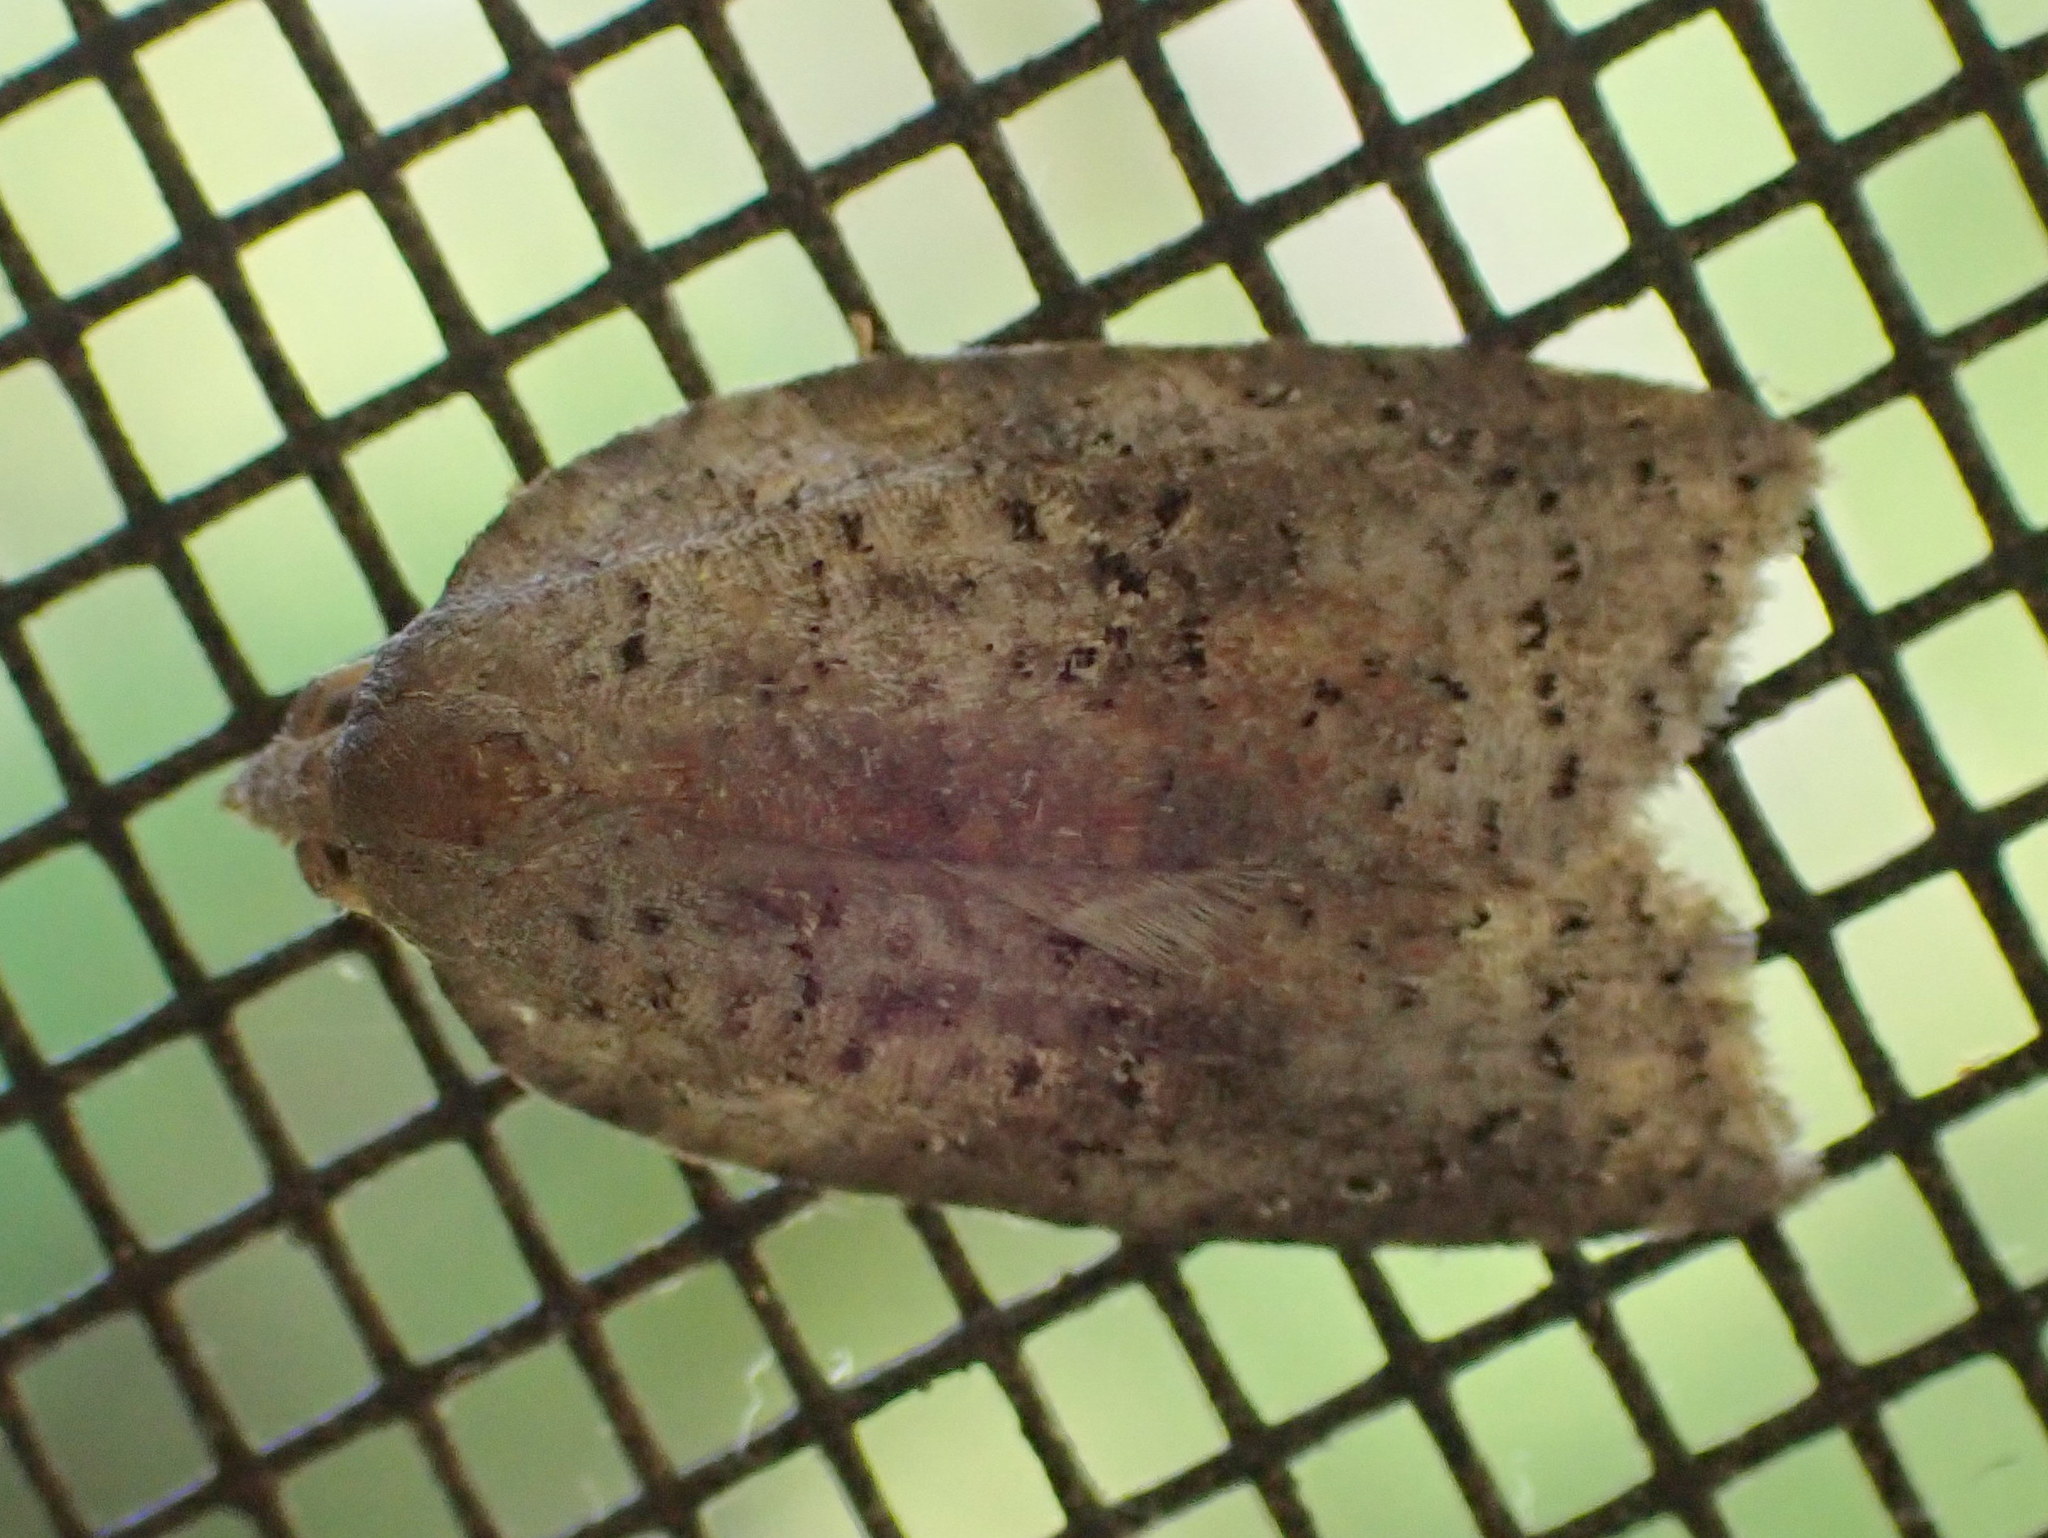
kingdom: Animalia
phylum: Arthropoda
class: Insecta
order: Lepidoptera
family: Tortricidae
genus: Amorbia
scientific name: Amorbia humerosana
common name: White-lined leafroller moth
